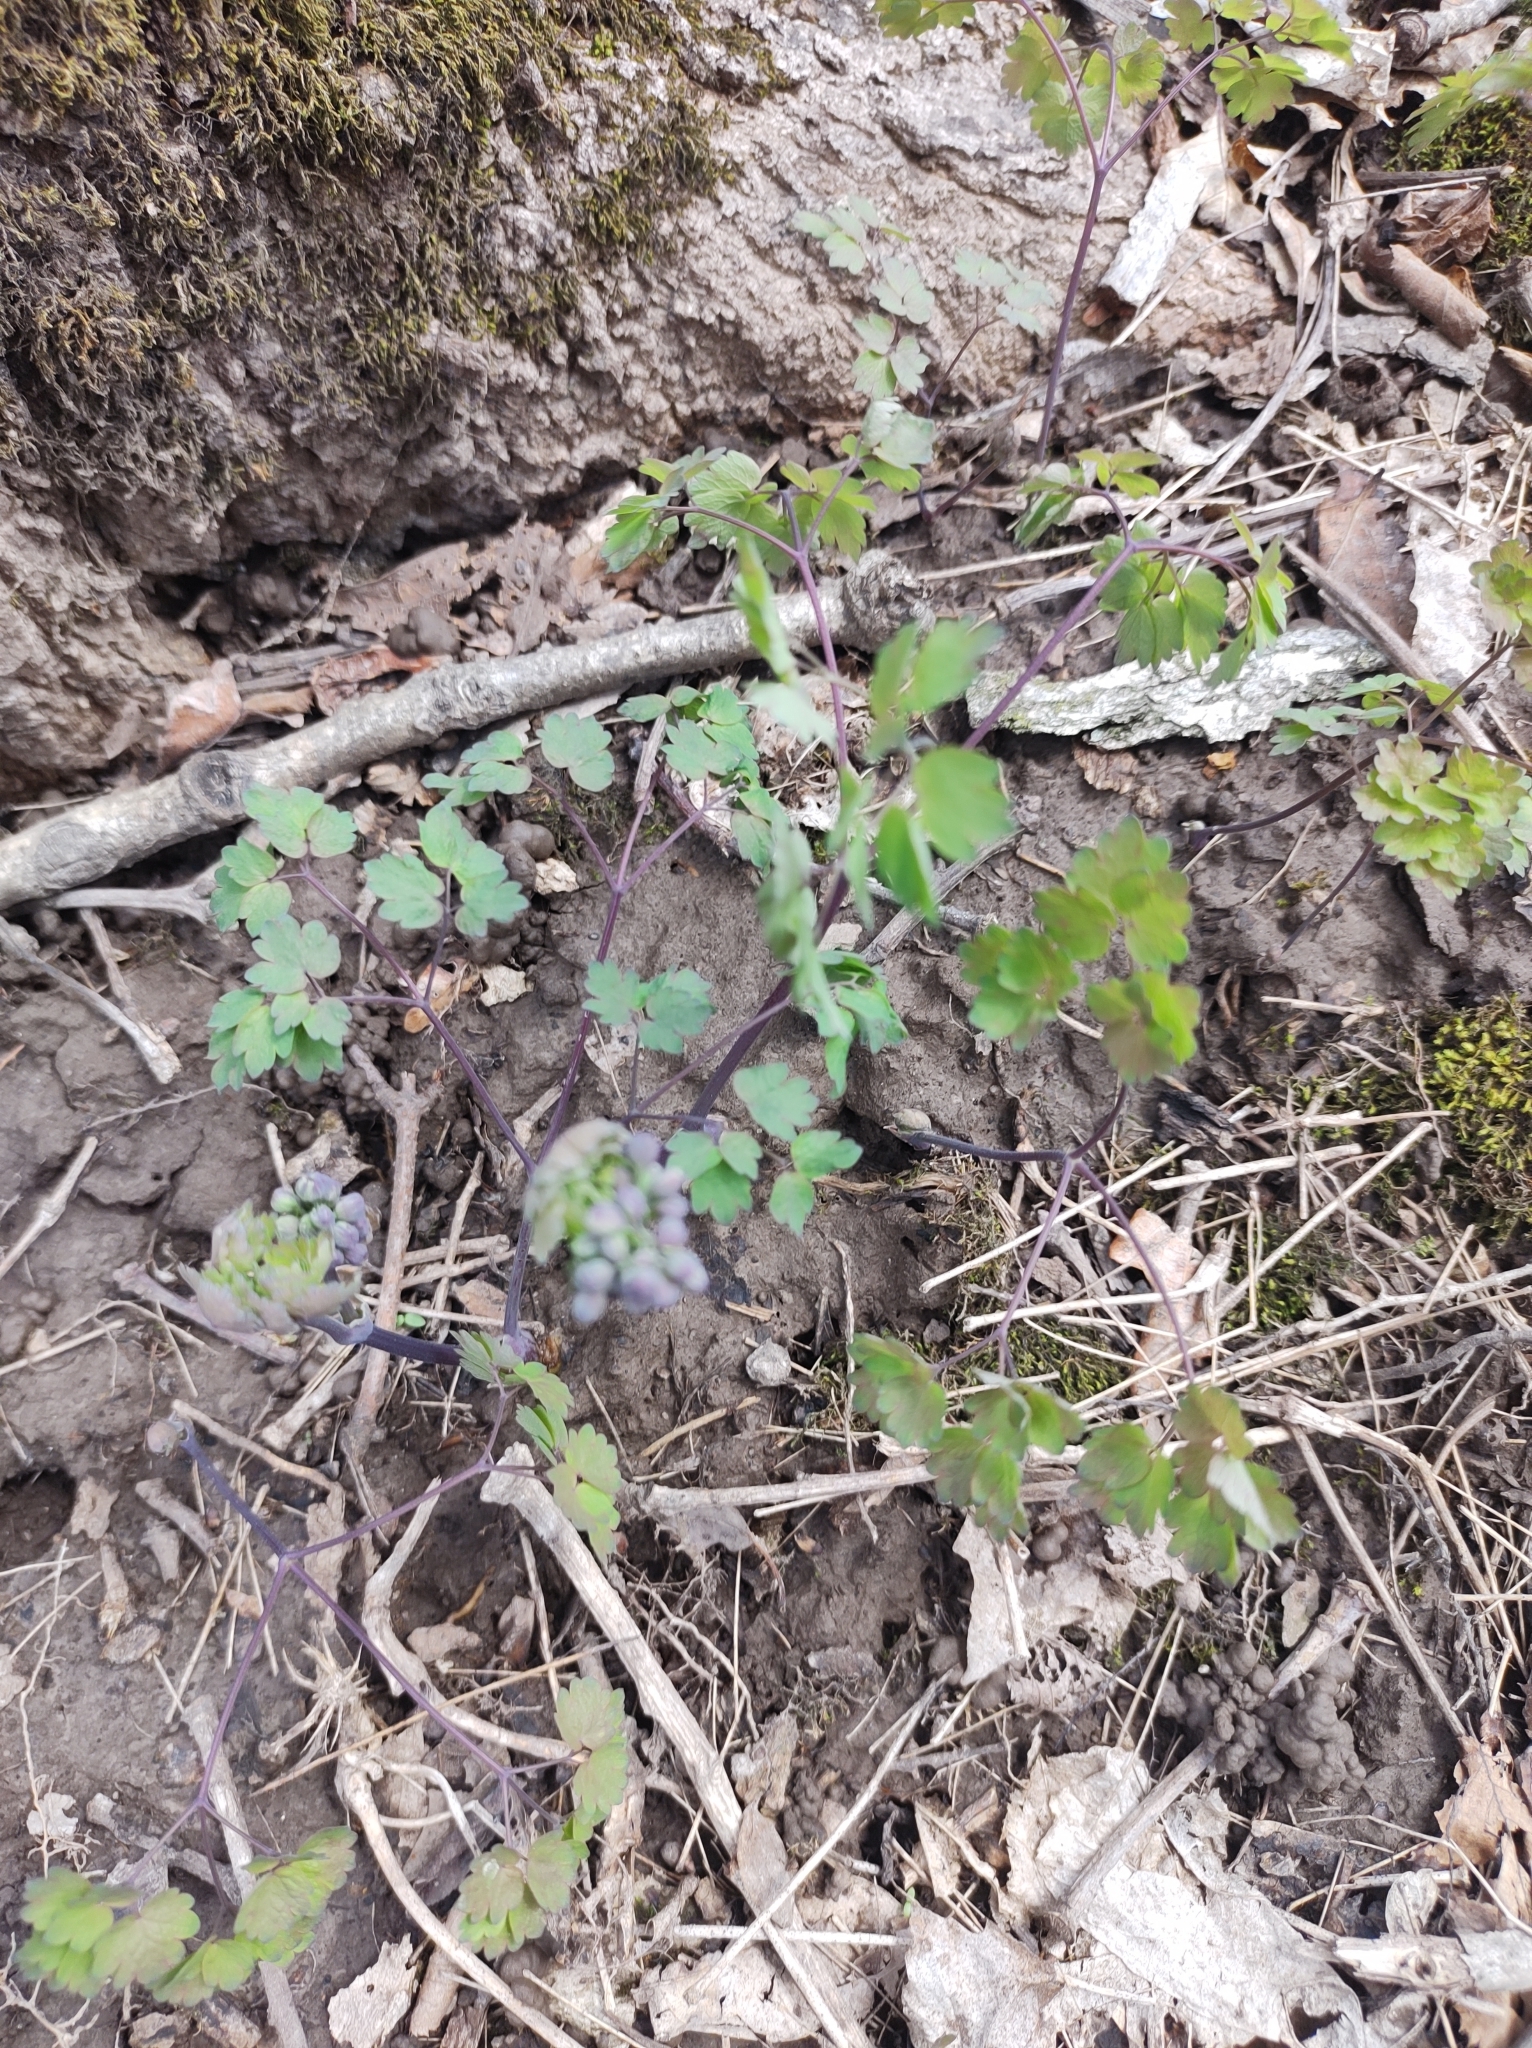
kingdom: Plantae
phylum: Tracheophyta
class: Magnoliopsida
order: Ranunculales
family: Ranunculaceae
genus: Thalictrum
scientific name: Thalictrum dioicum
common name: Early meadow-rue
